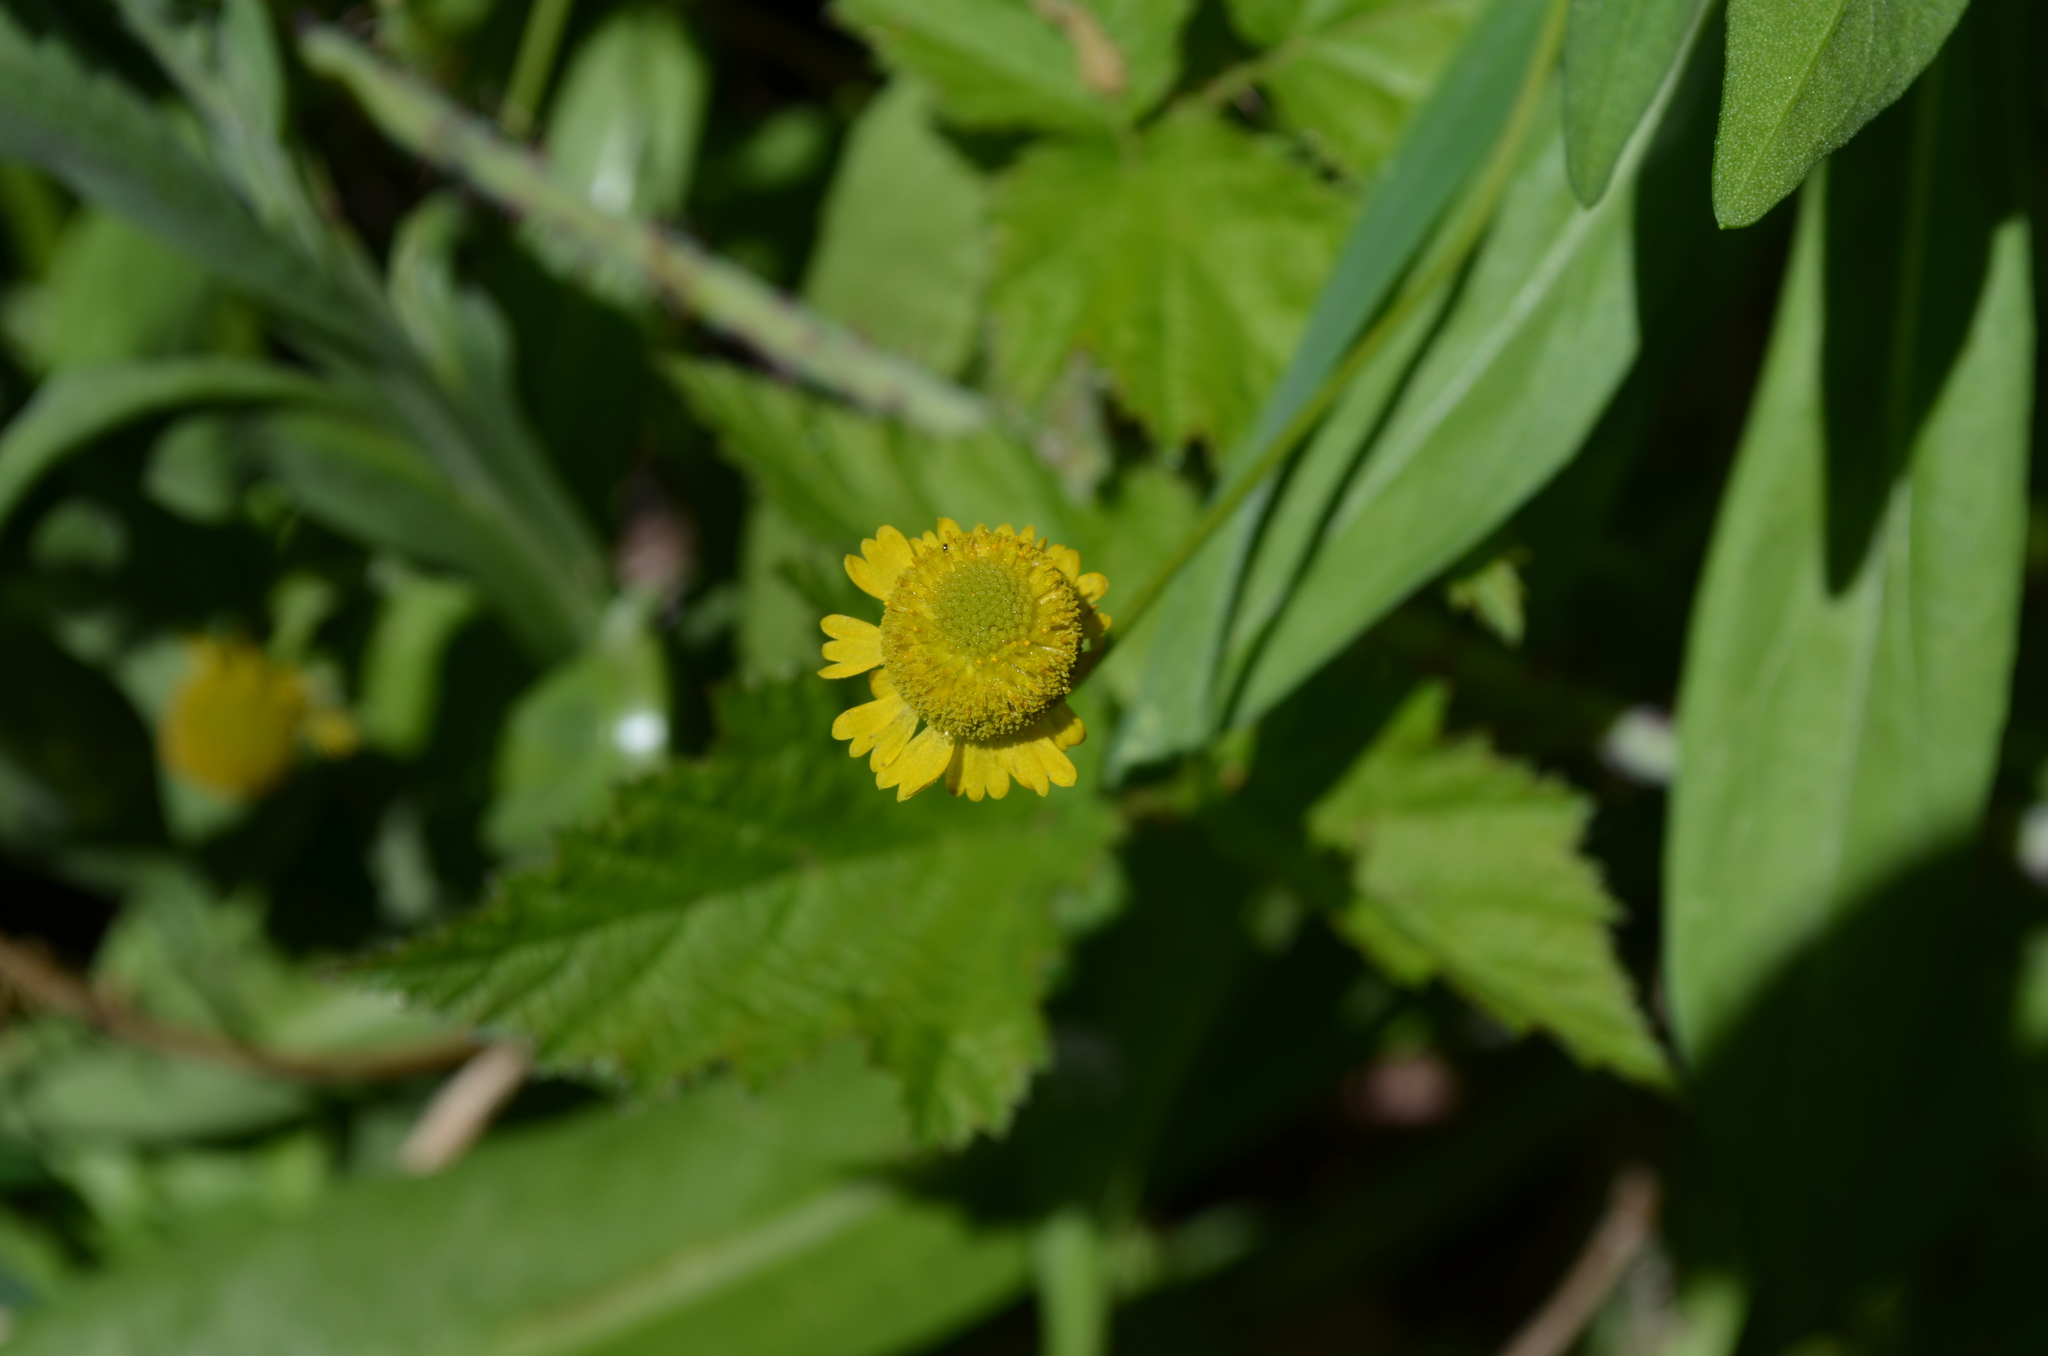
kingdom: Plantae
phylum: Tracheophyta
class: Magnoliopsida
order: Asterales
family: Asteraceae
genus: Helenium
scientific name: Helenium puberulum
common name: Sneezewort
